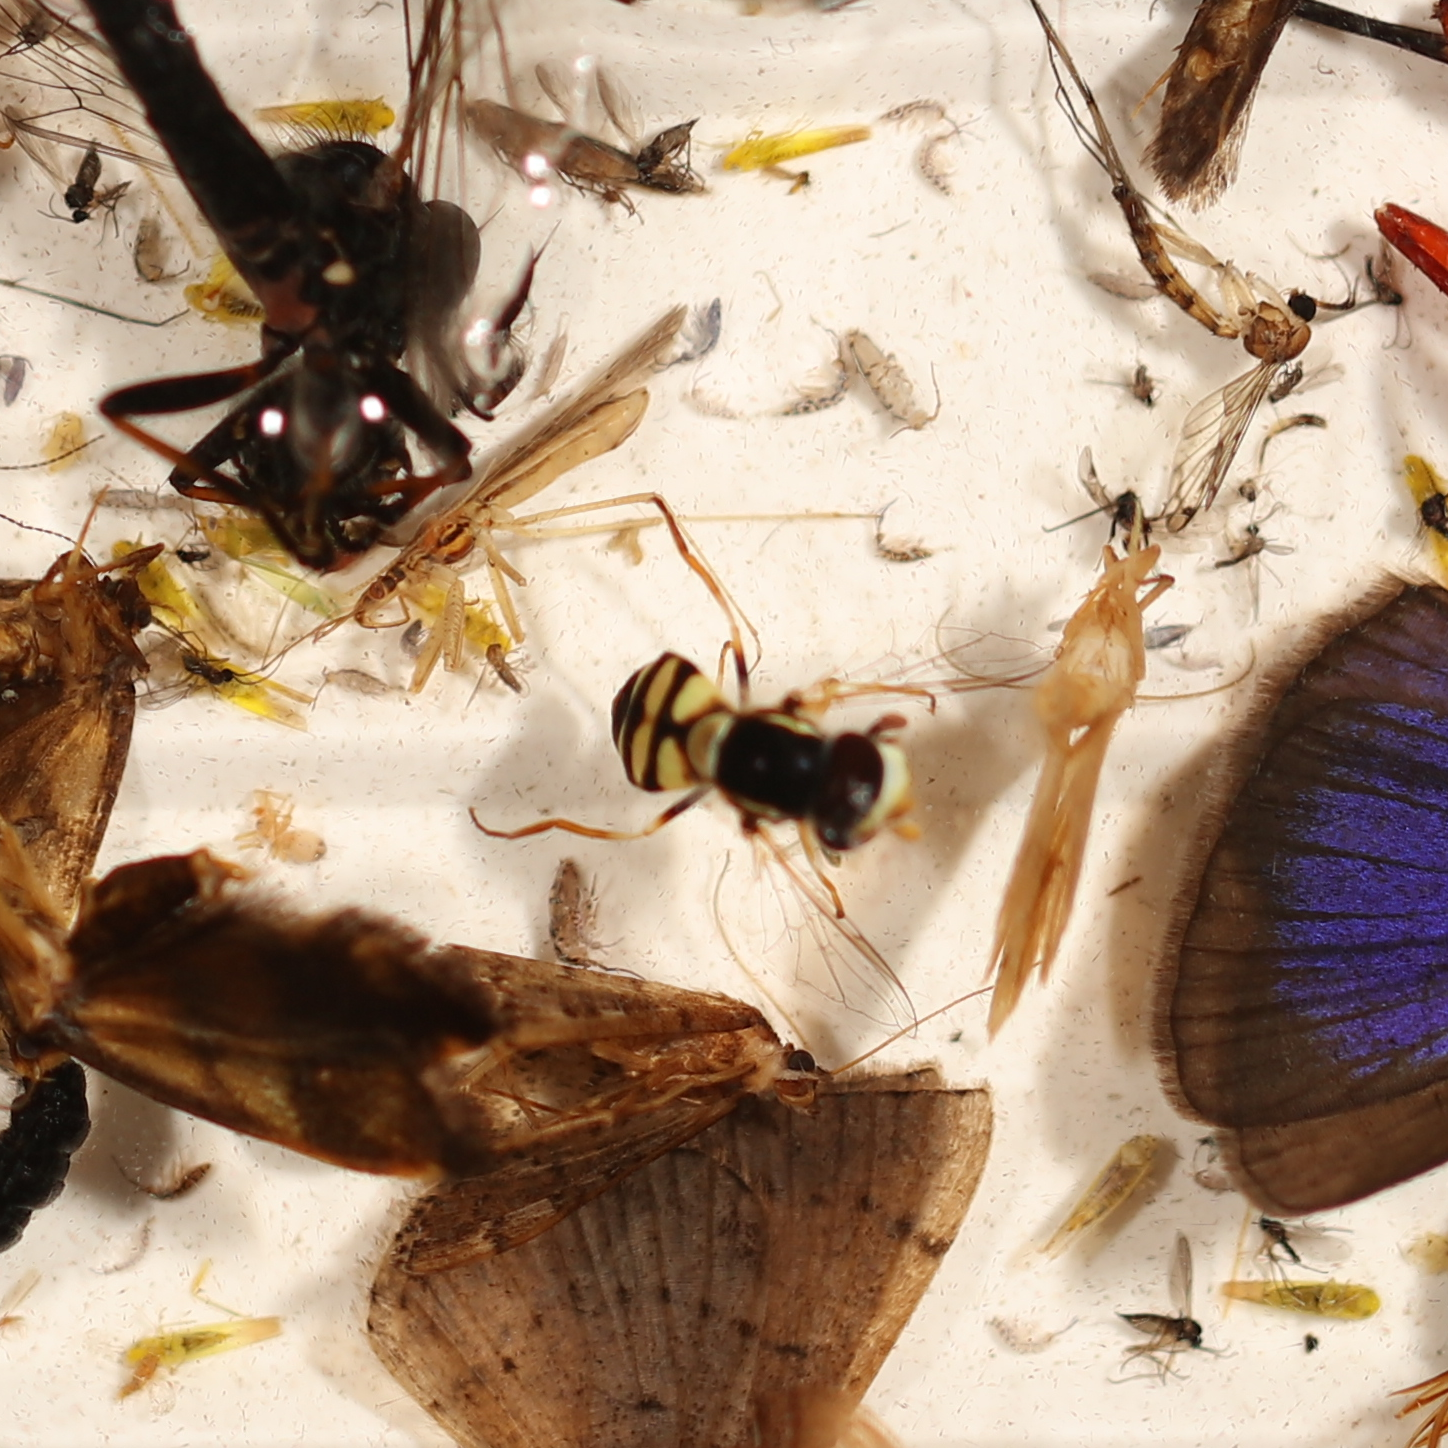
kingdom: Animalia
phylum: Arthropoda
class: Insecta
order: Diptera
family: Syrphidae
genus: Simosyrphus
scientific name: Simosyrphus grandicornis
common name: Hoverfly
